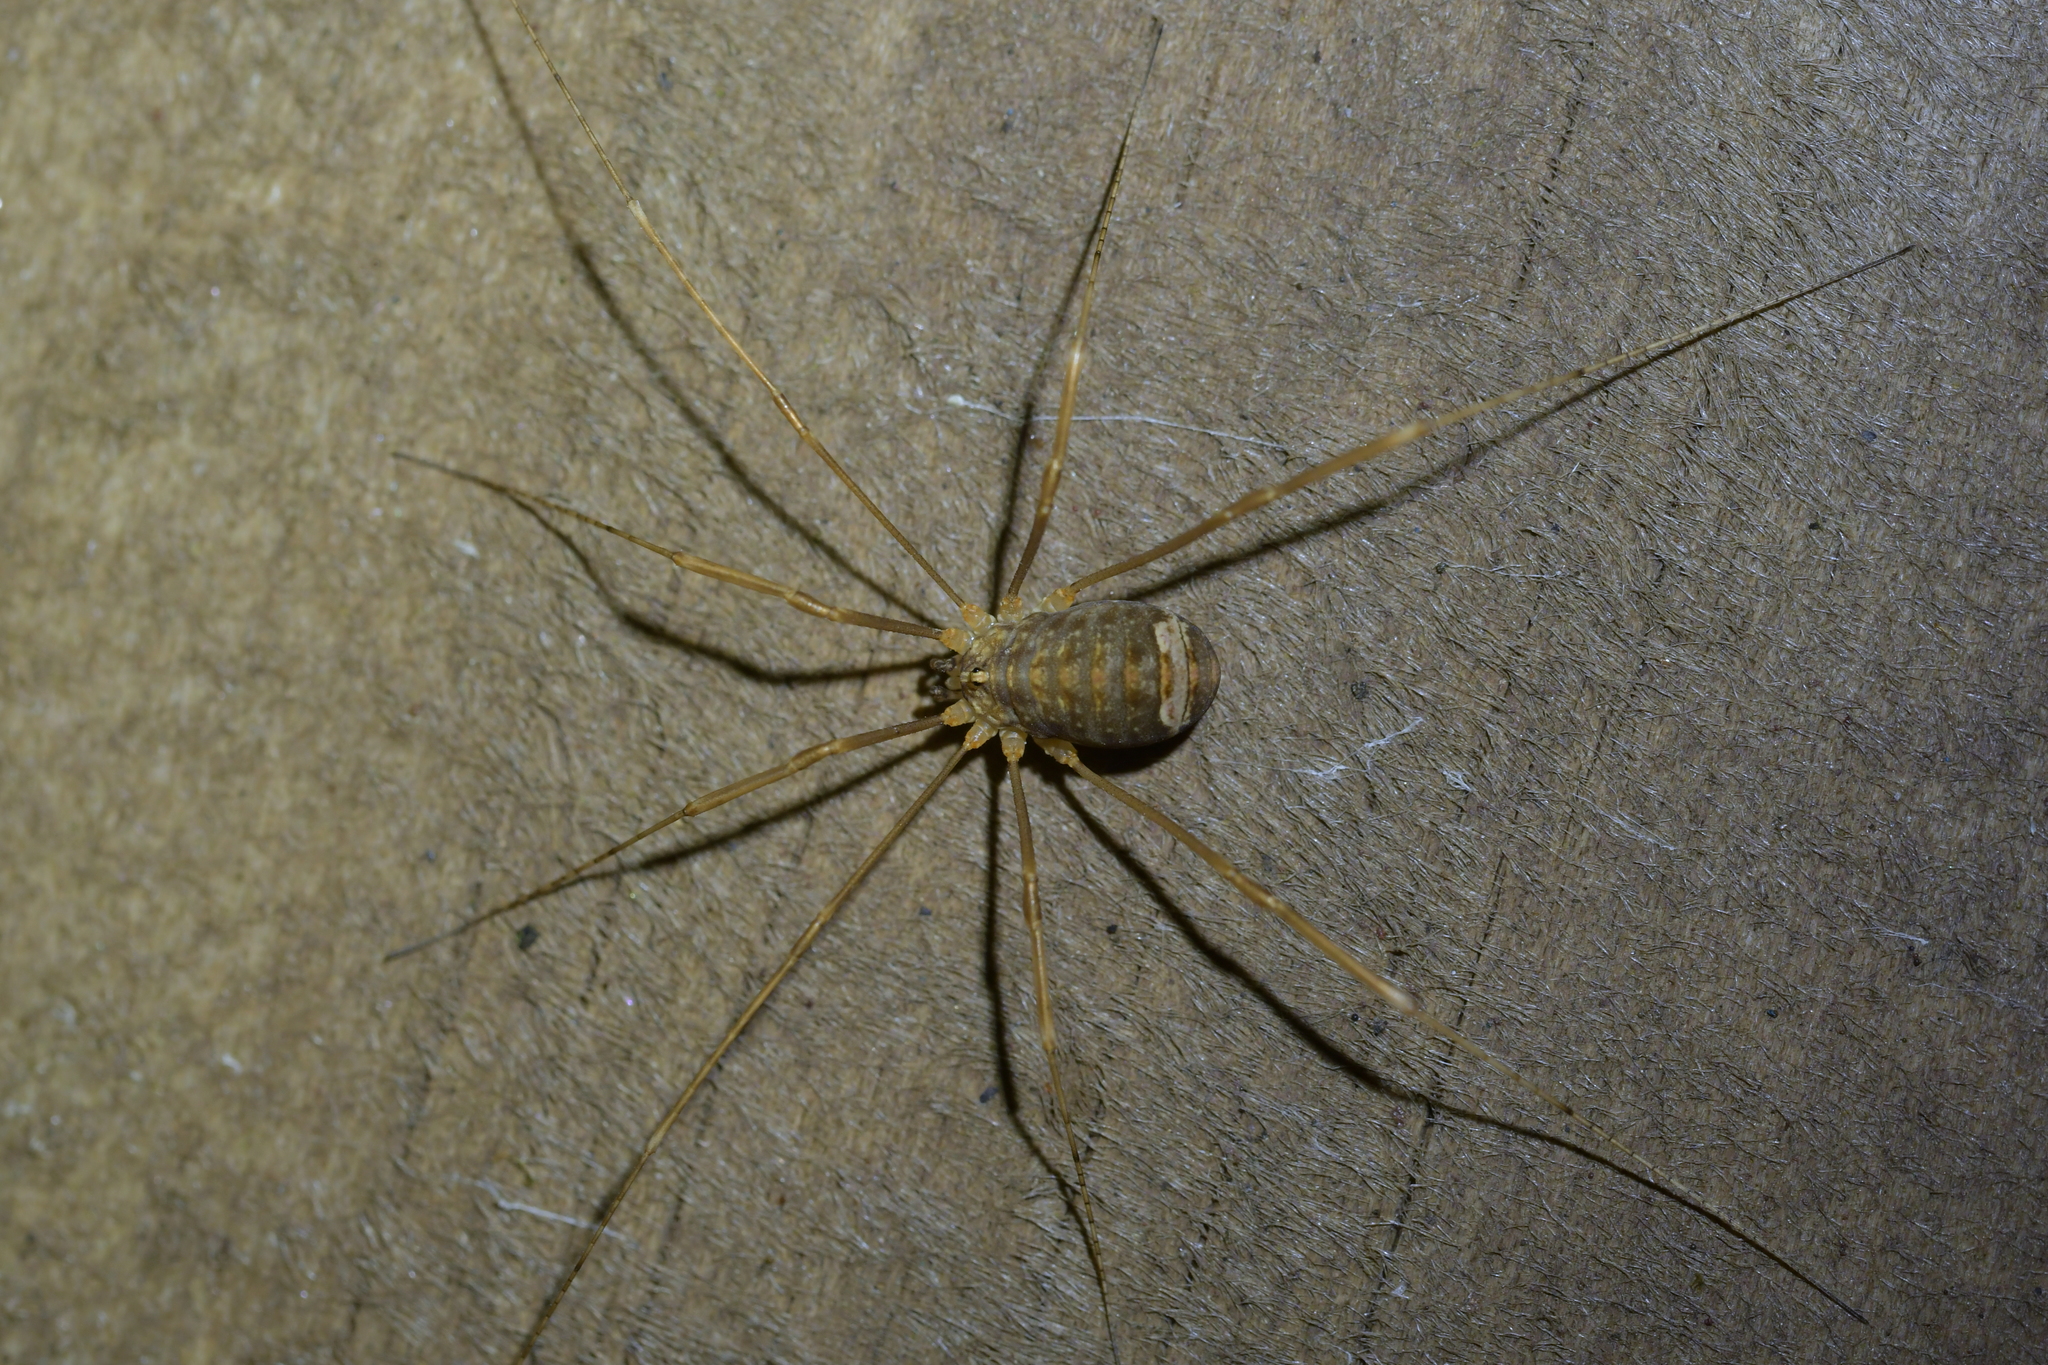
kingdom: Animalia
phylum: Arthropoda
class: Arachnida
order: Opiliones
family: Sclerosomatidae
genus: Nelima
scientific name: Nelima doriae
